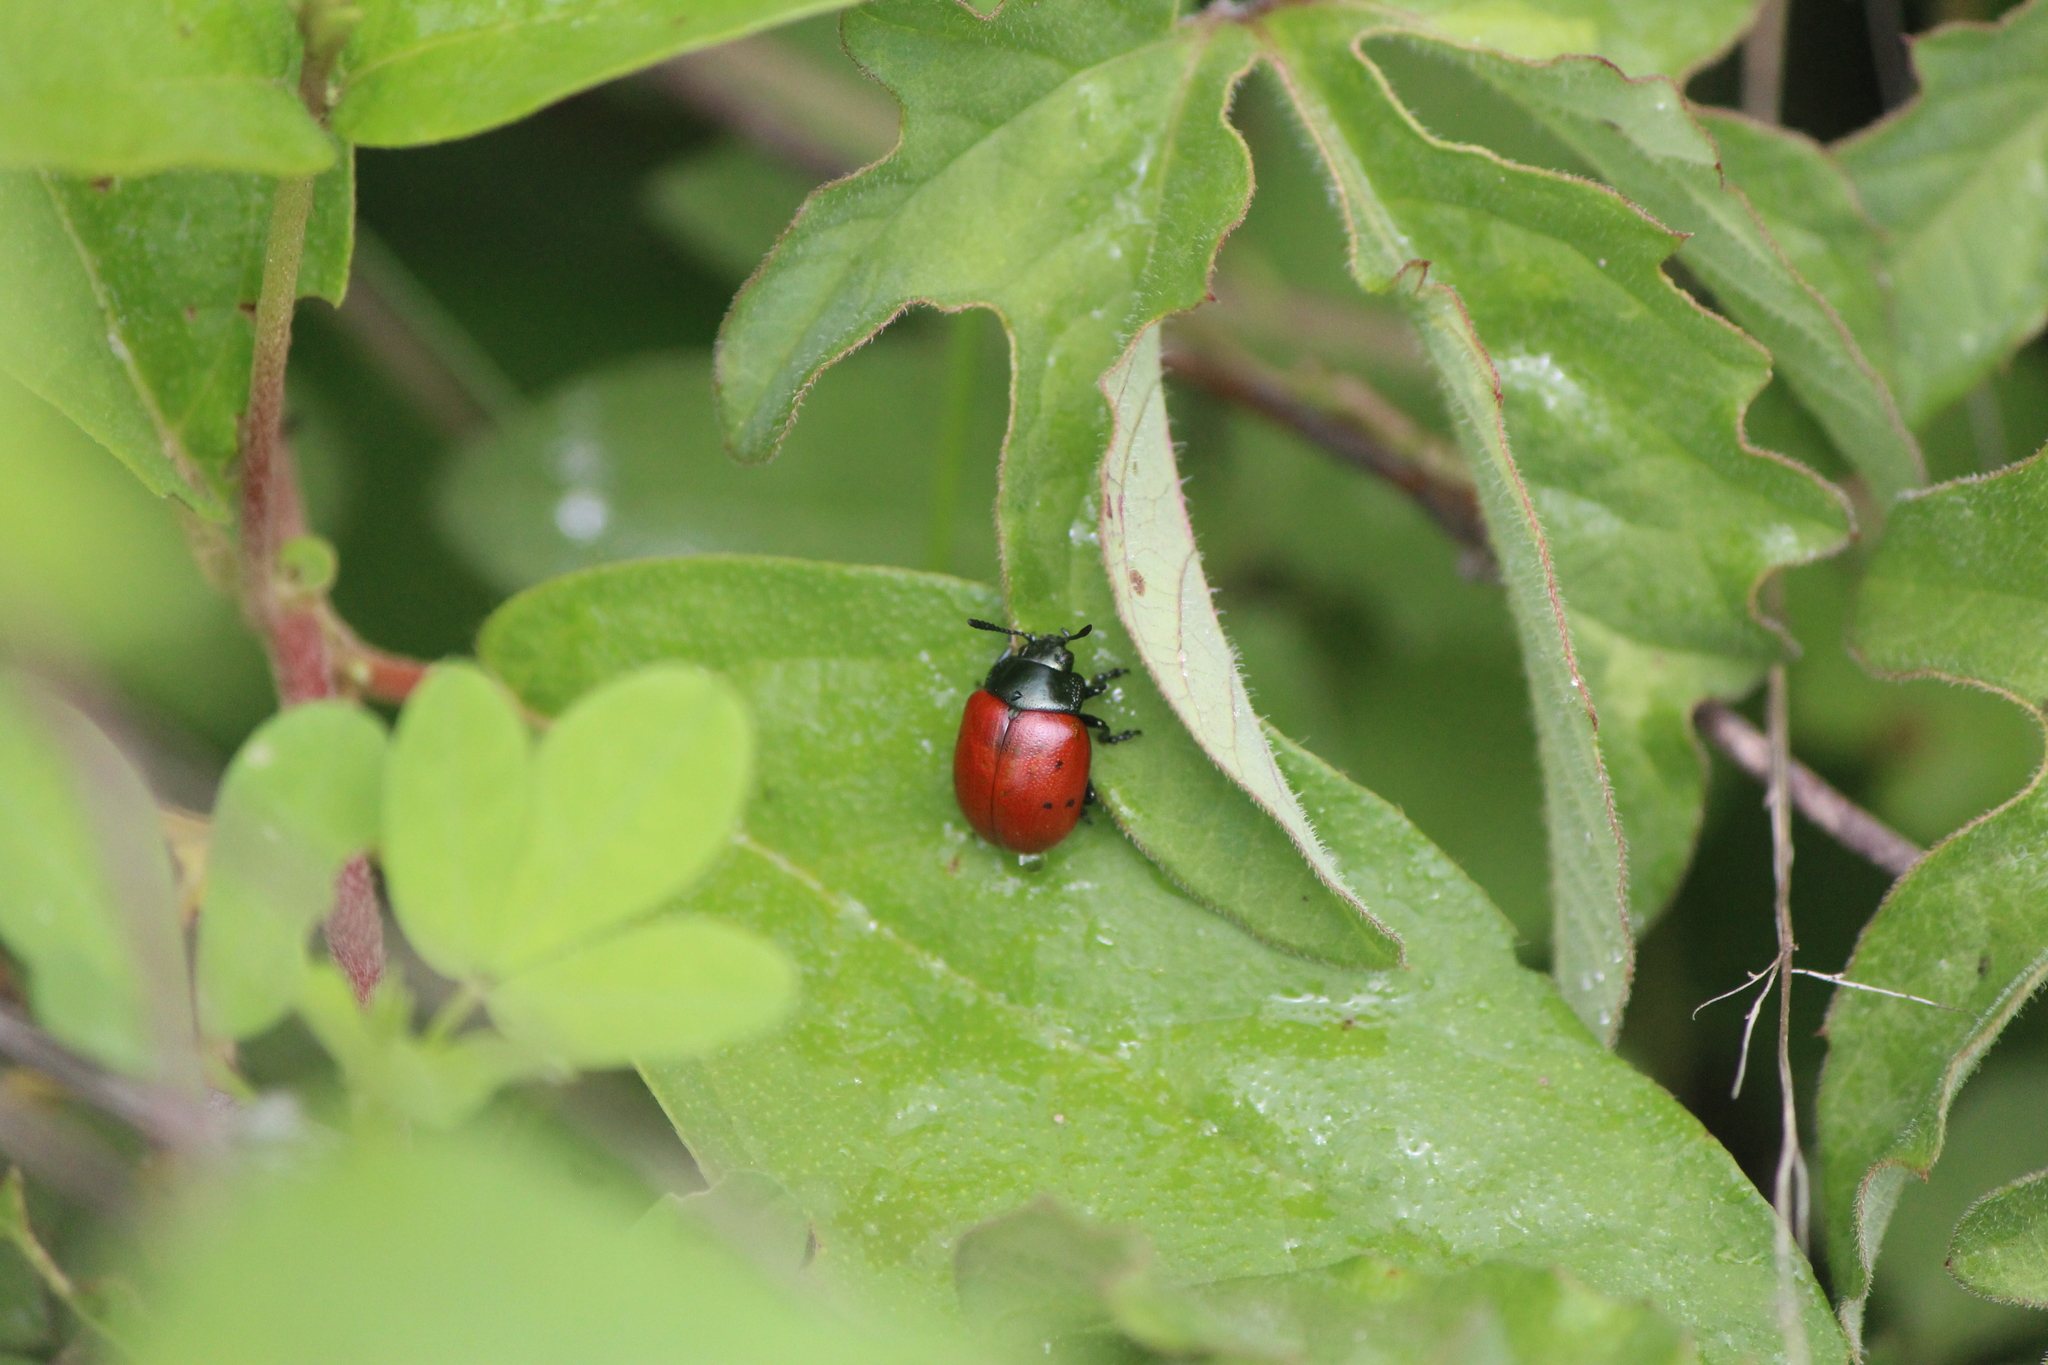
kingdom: Animalia
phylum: Arthropoda
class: Insecta
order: Coleoptera
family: Chrysomelidae
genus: Leptinotarsa
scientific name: Leptinotarsa
